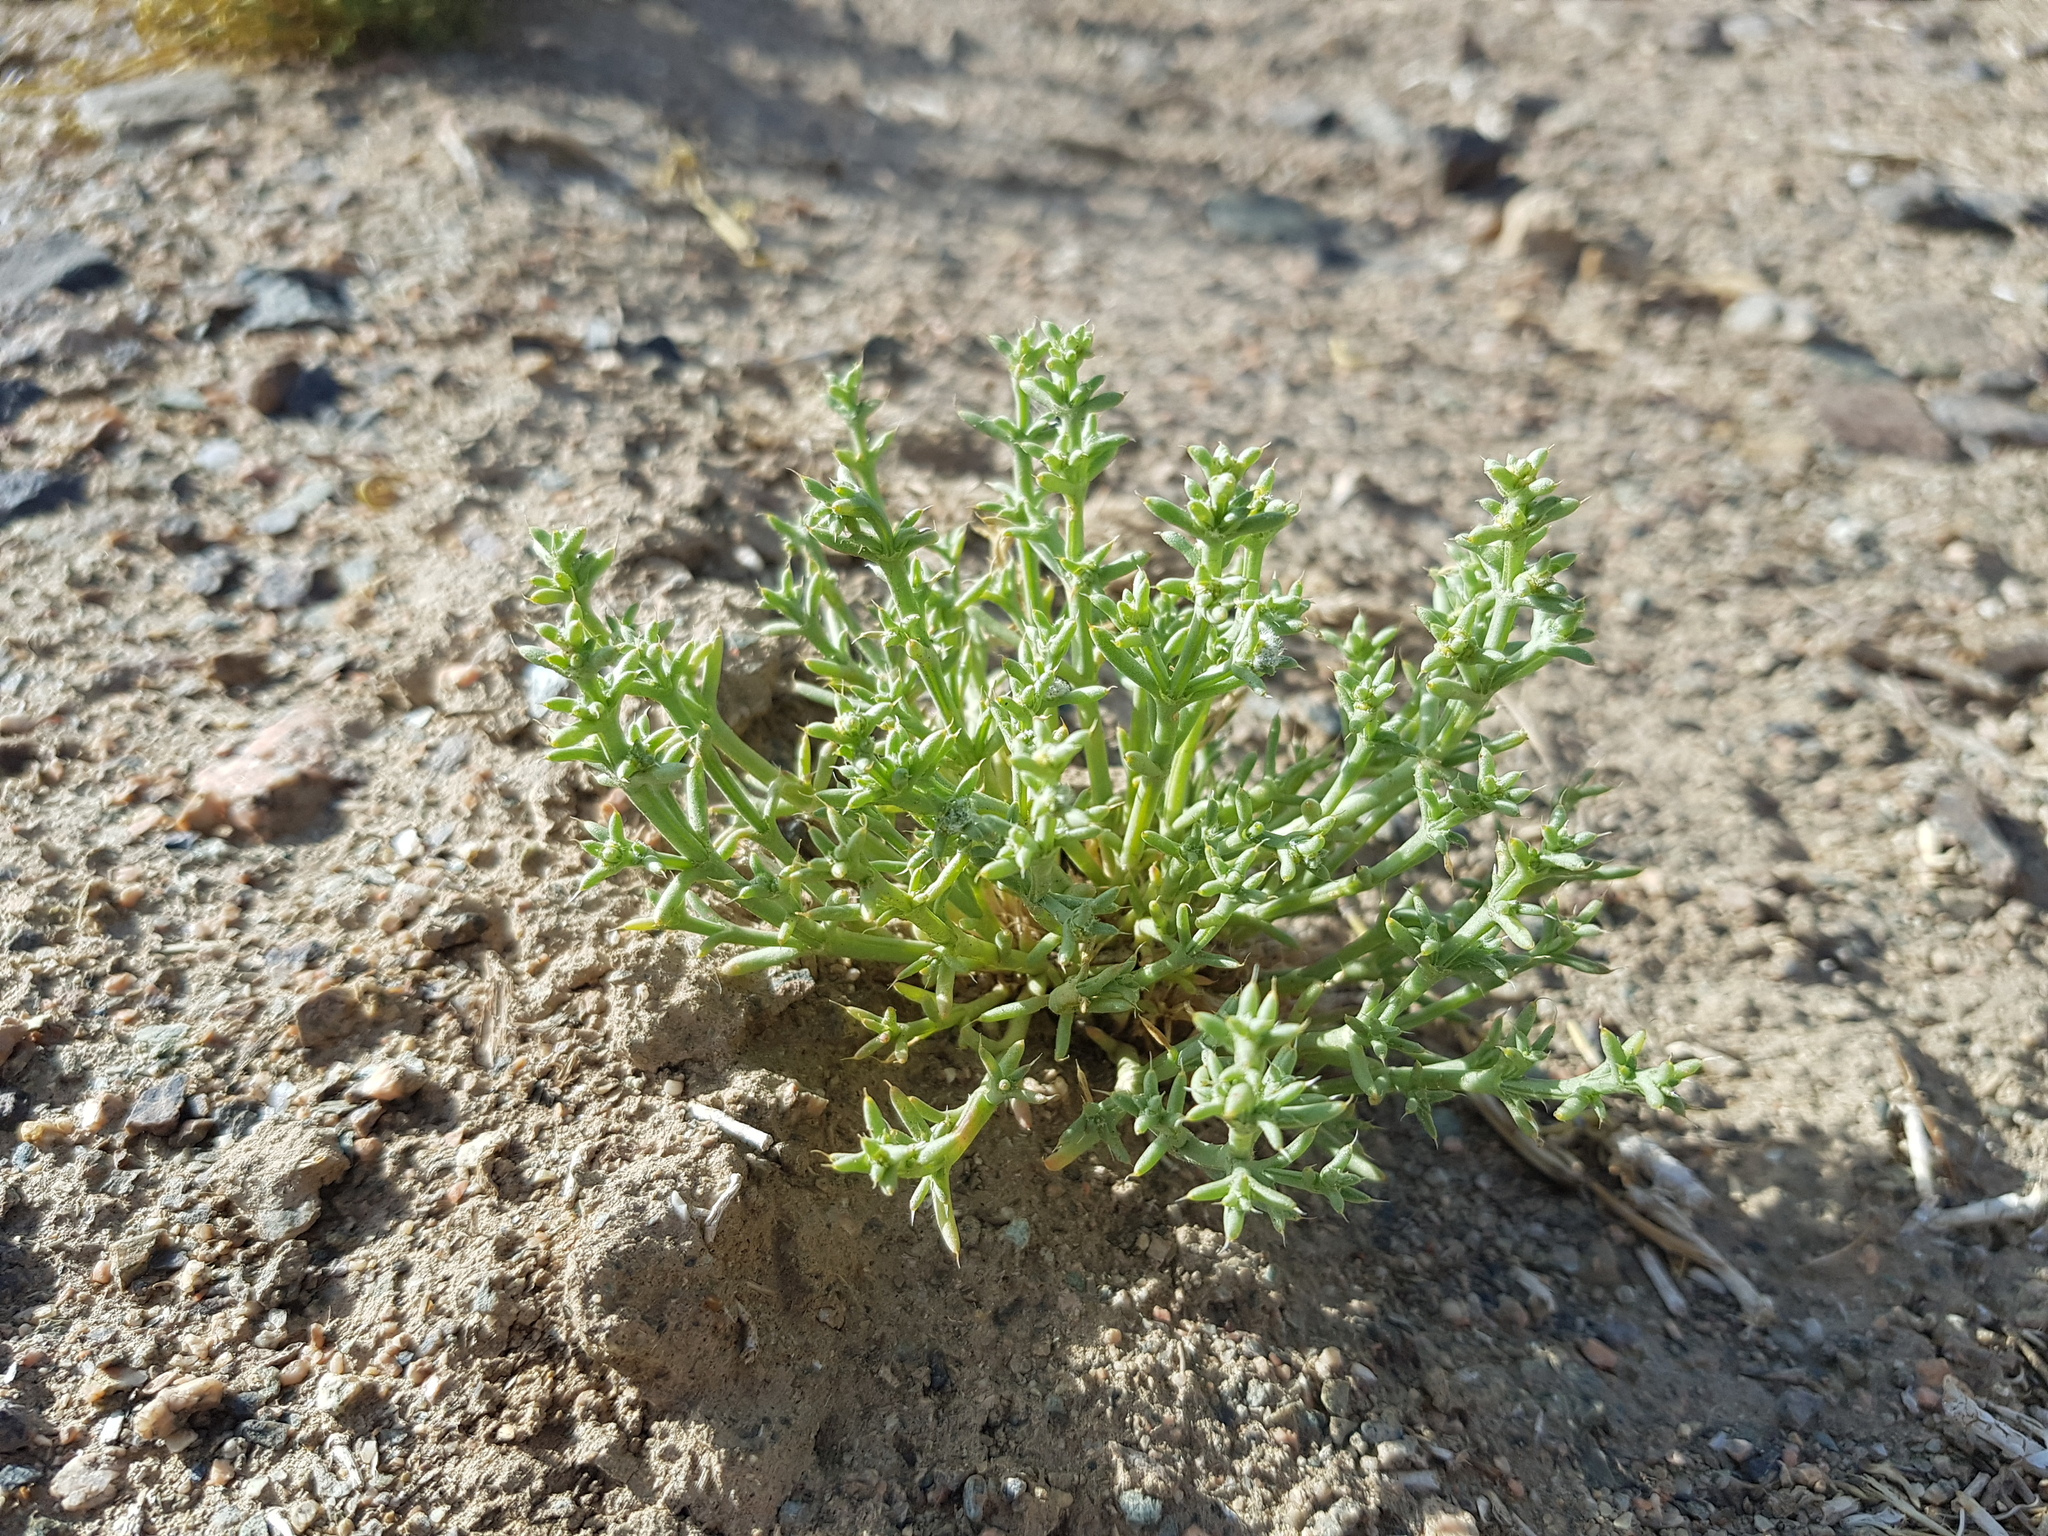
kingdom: Plantae
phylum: Tracheophyta
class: Magnoliopsida
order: Caryophyllales
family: Amaranthaceae
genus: Anabasis
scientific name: Anabasis brevifolia
